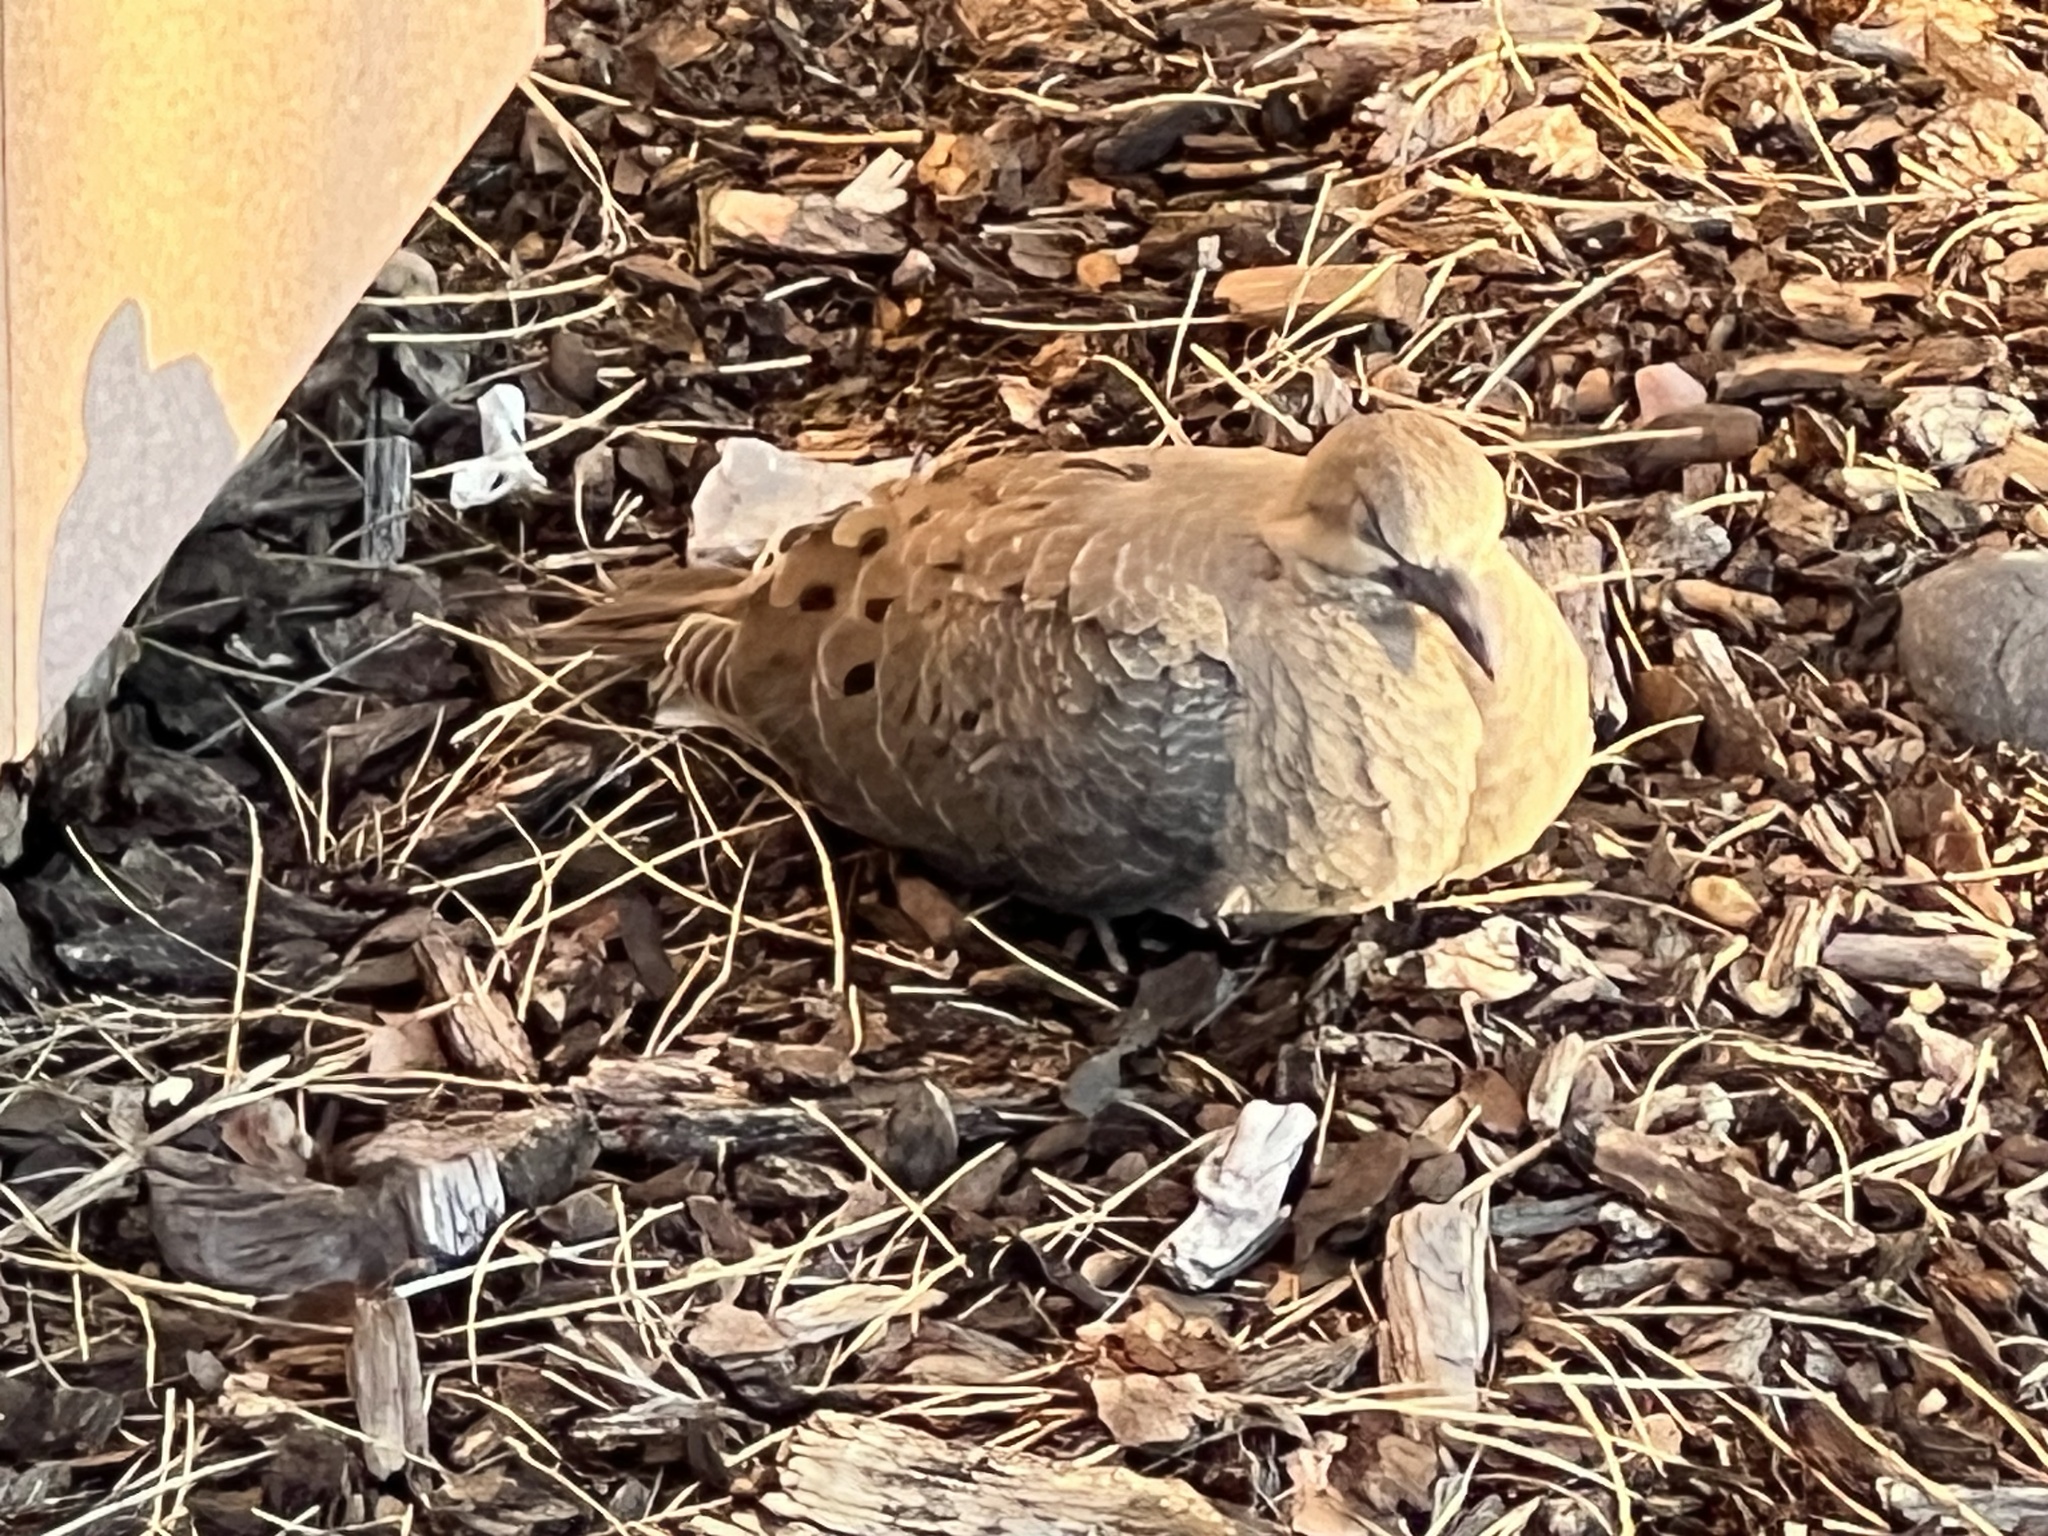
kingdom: Animalia
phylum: Chordata
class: Aves
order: Columbiformes
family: Columbidae
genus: Zenaida
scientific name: Zenaida macroura
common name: Mourning dove
